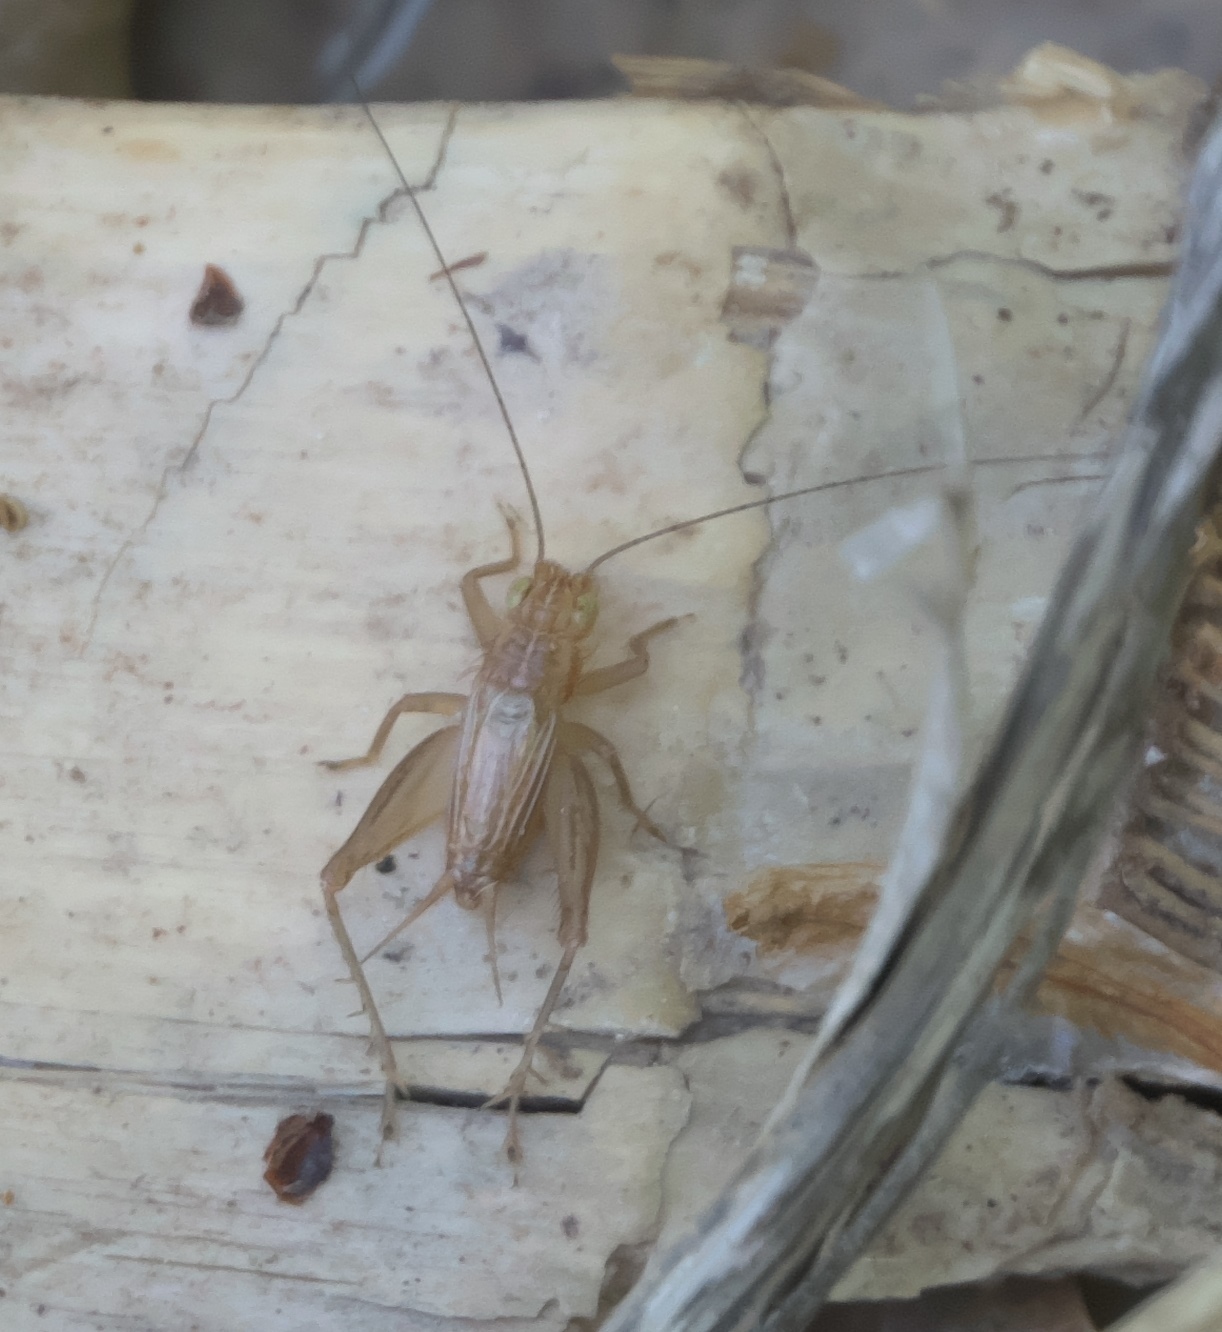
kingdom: Animalia
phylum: Arthropoda
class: Insecta
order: Orthoptera
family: Trigonidiidae
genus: Falcicula
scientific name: Falcicula hebardi
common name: Hebard's bush cricket
